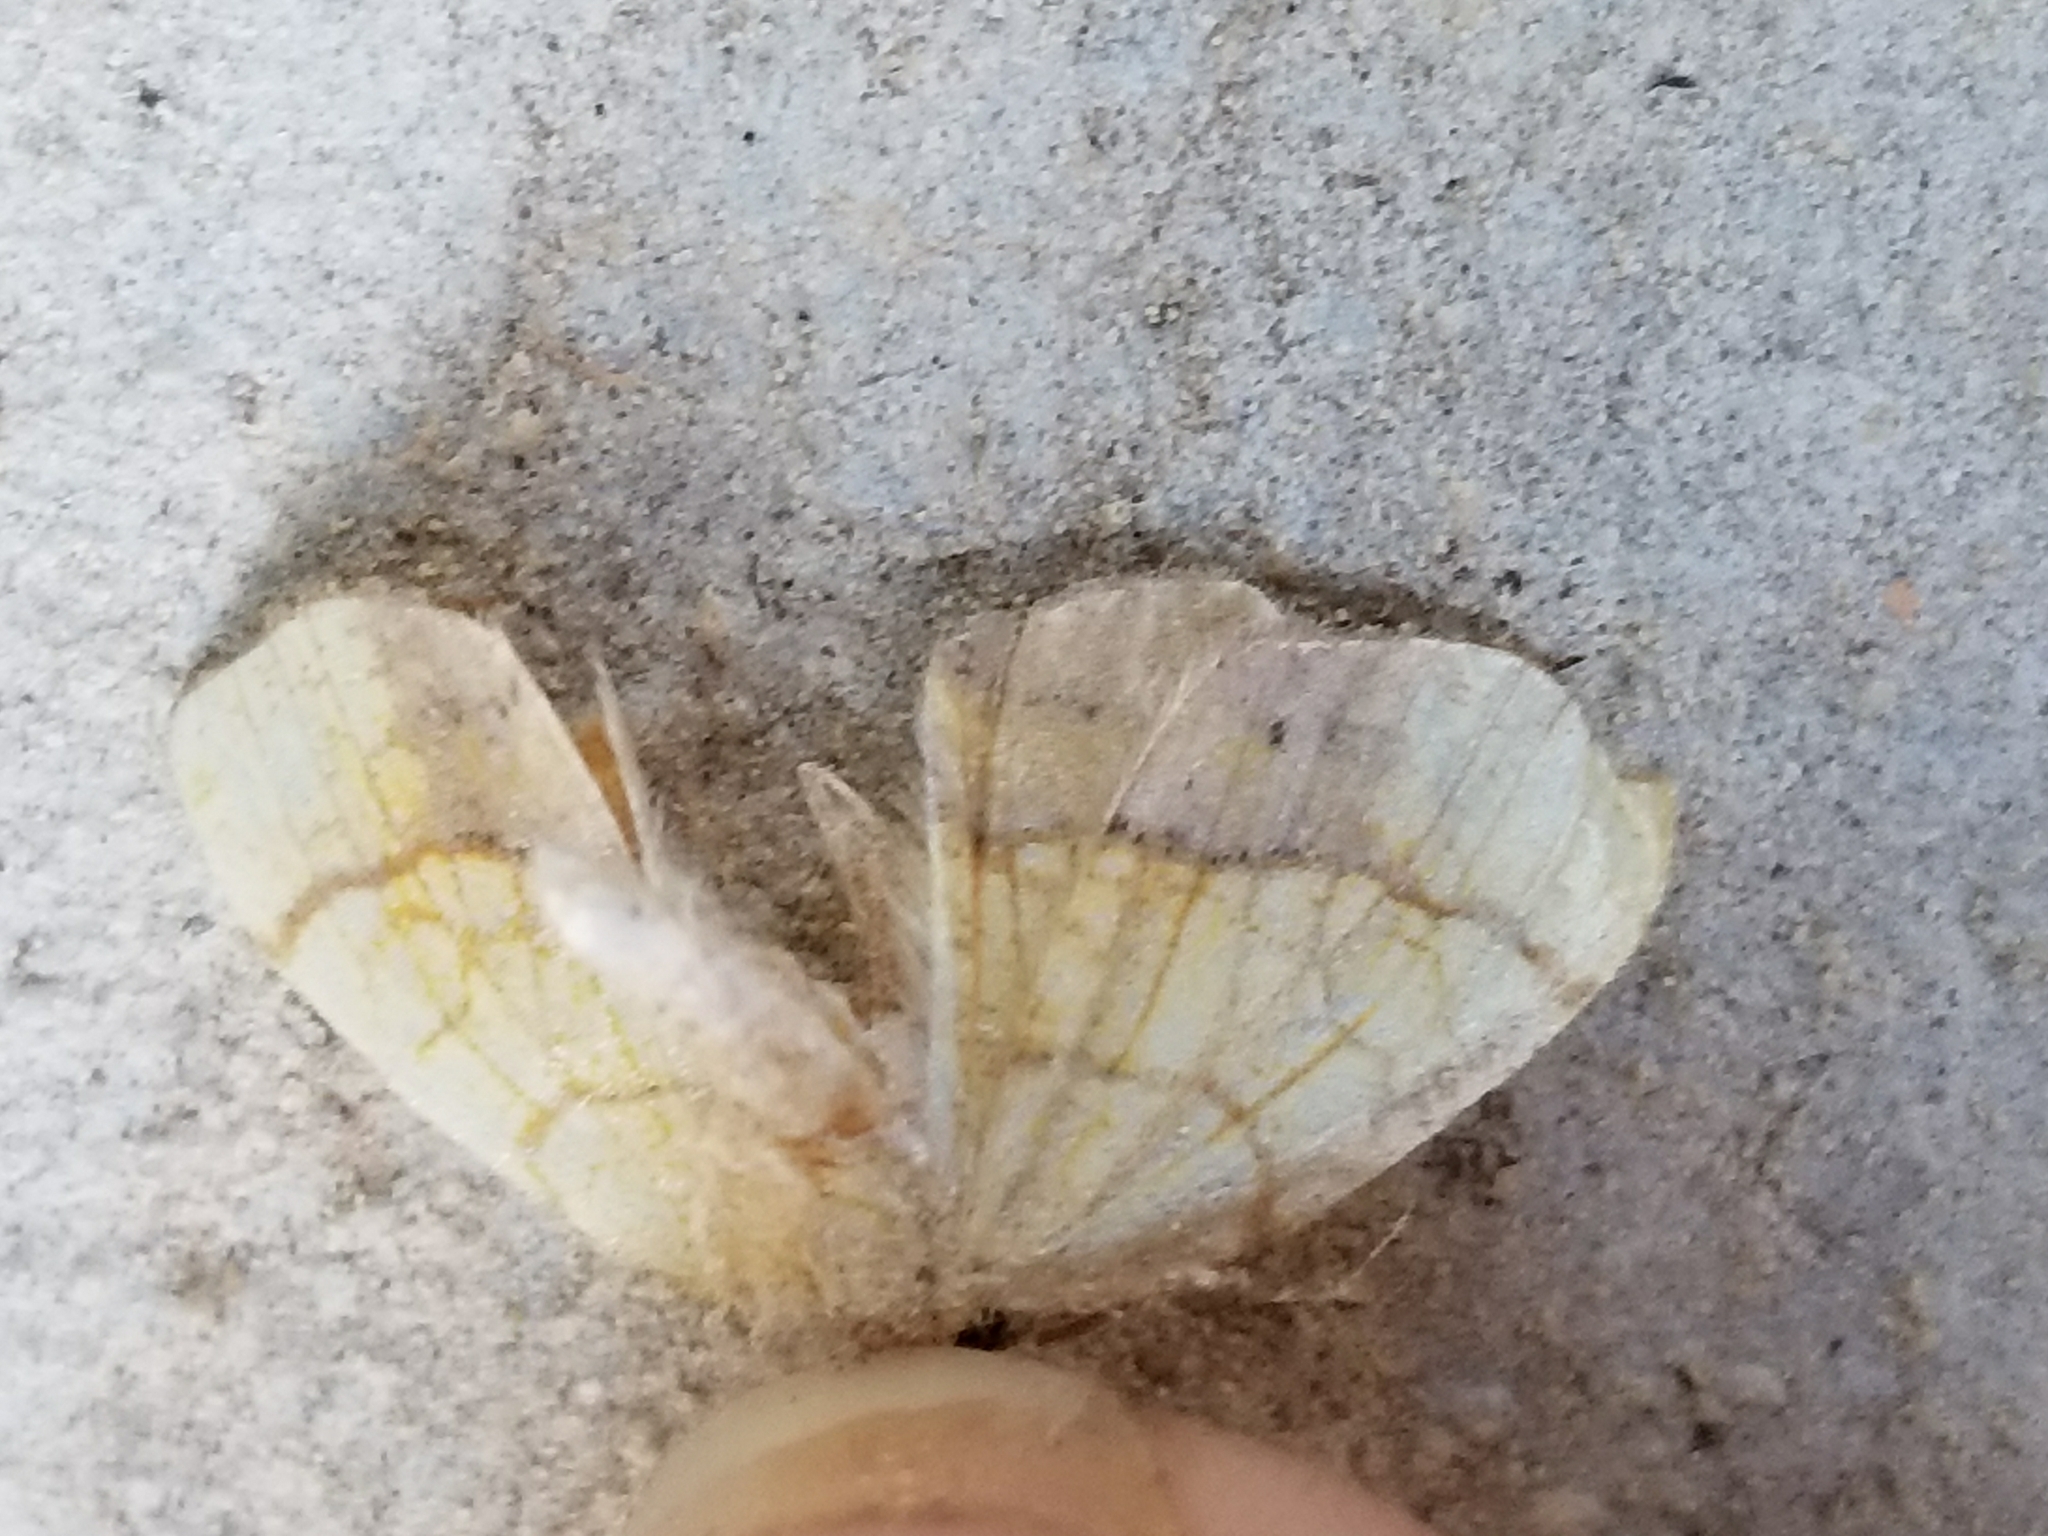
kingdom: Animalia
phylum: Arthropoda
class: Insecta
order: Lepidoptera
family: Geometridae
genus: Nematocampa
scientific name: Nematocampa resistaria
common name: Horned spanworm moth
